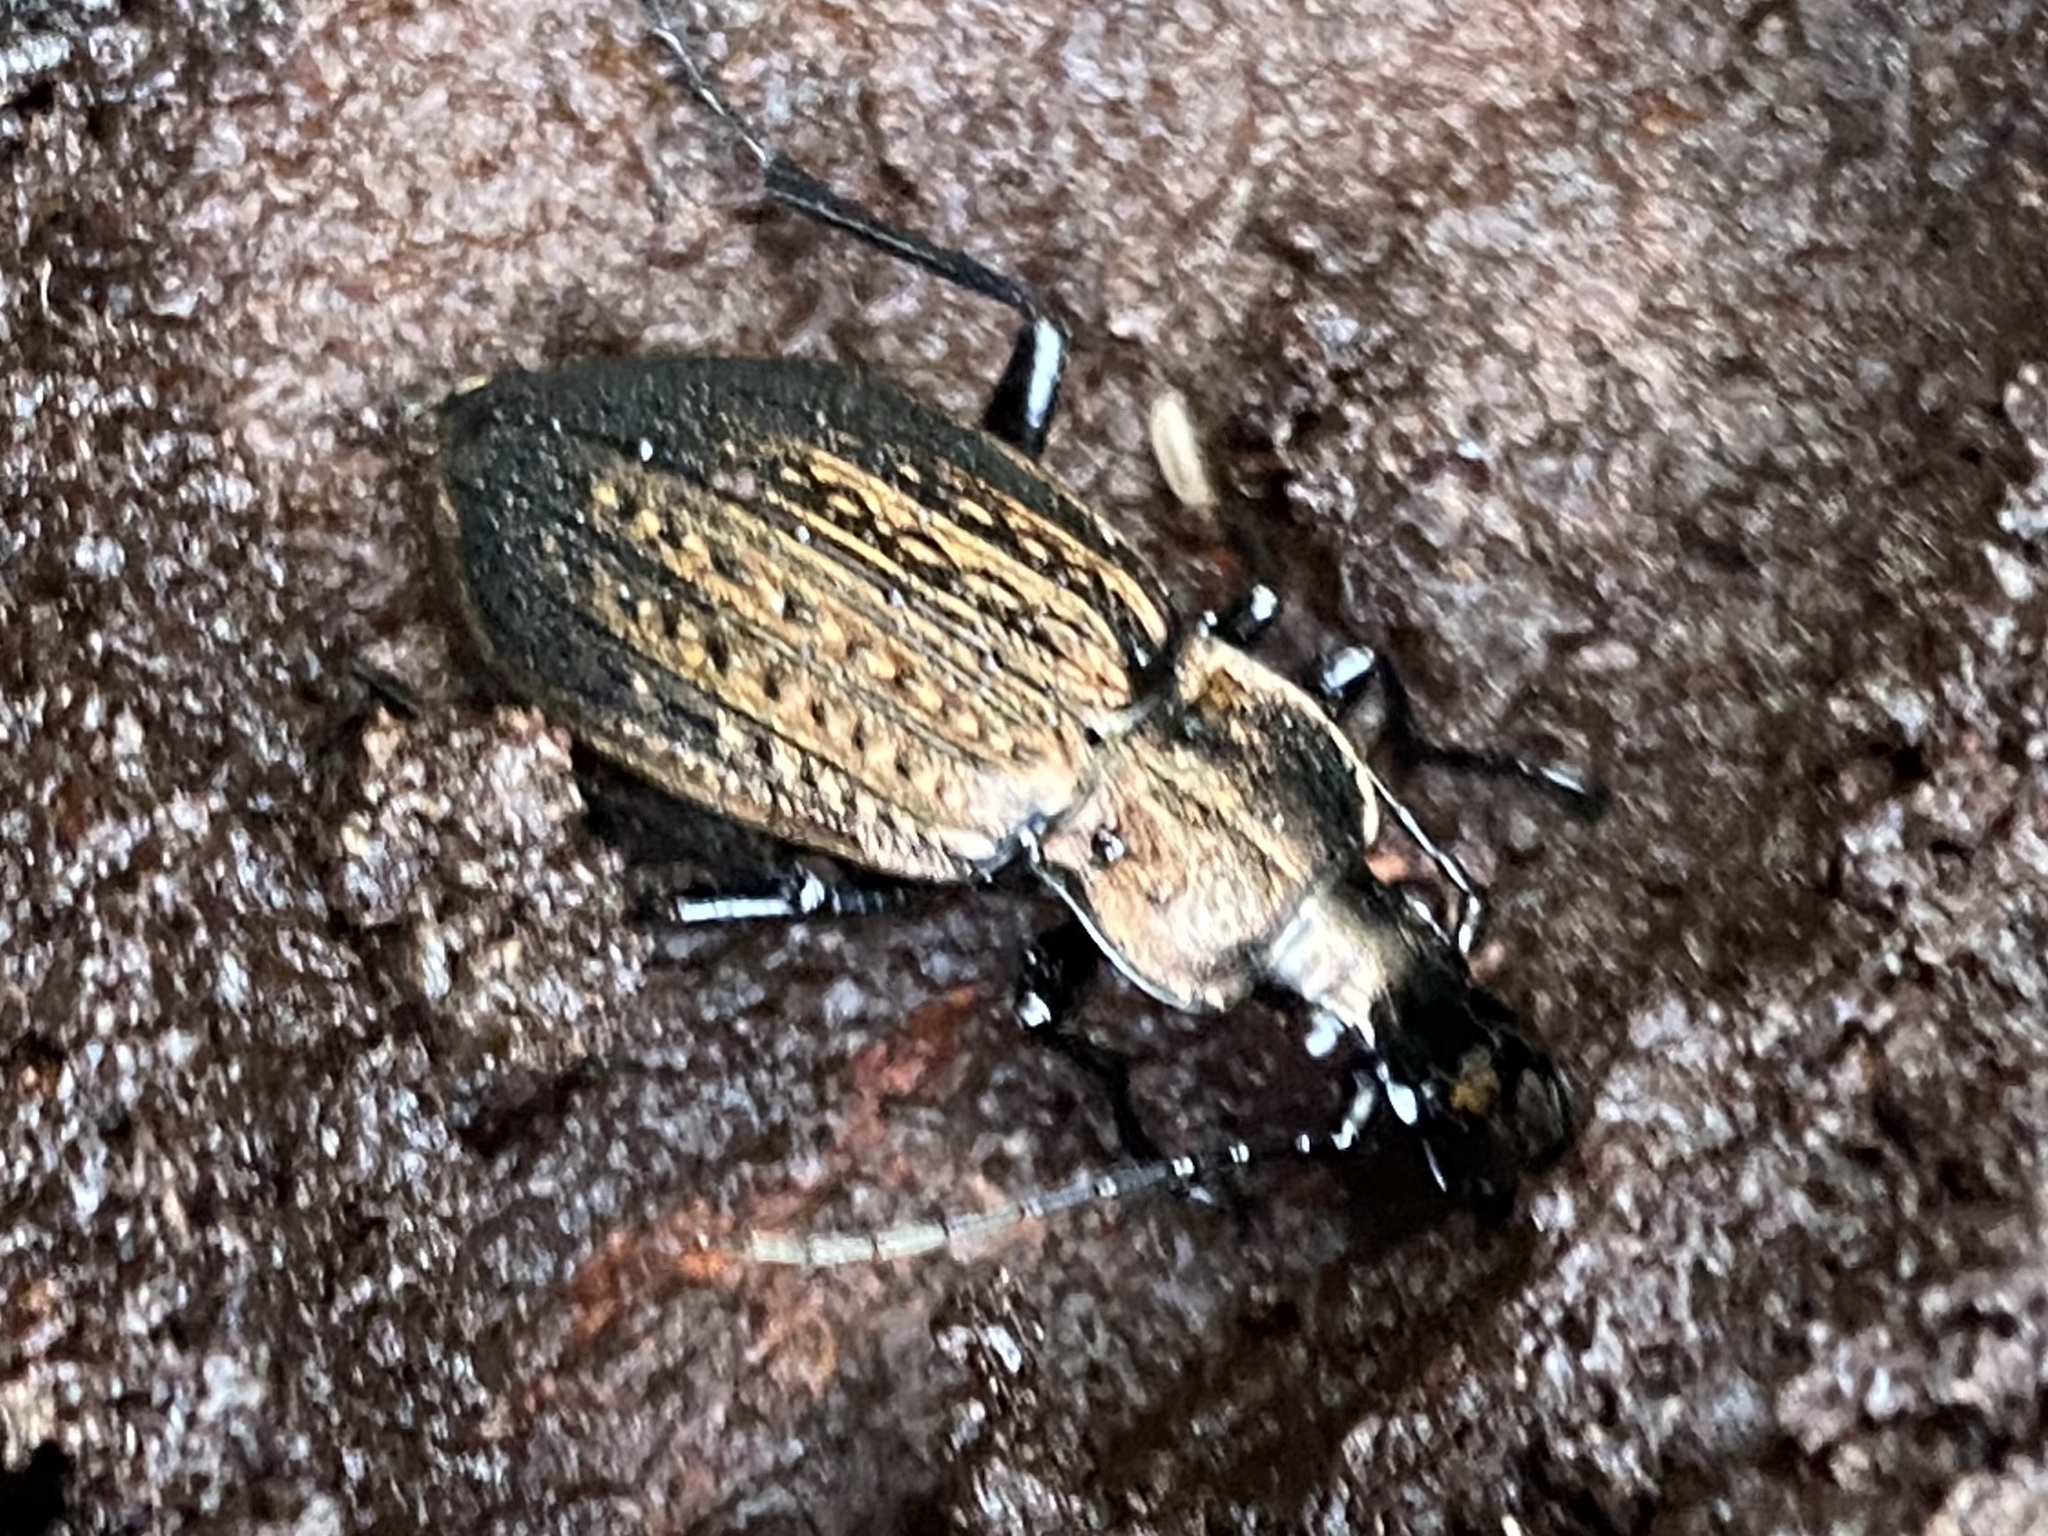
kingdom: Animalia
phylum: Arthropoda
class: Insecta
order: Coleoptera
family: Carabidae
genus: Carabus
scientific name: Carabus granulatus
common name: Granulate ground beetle
